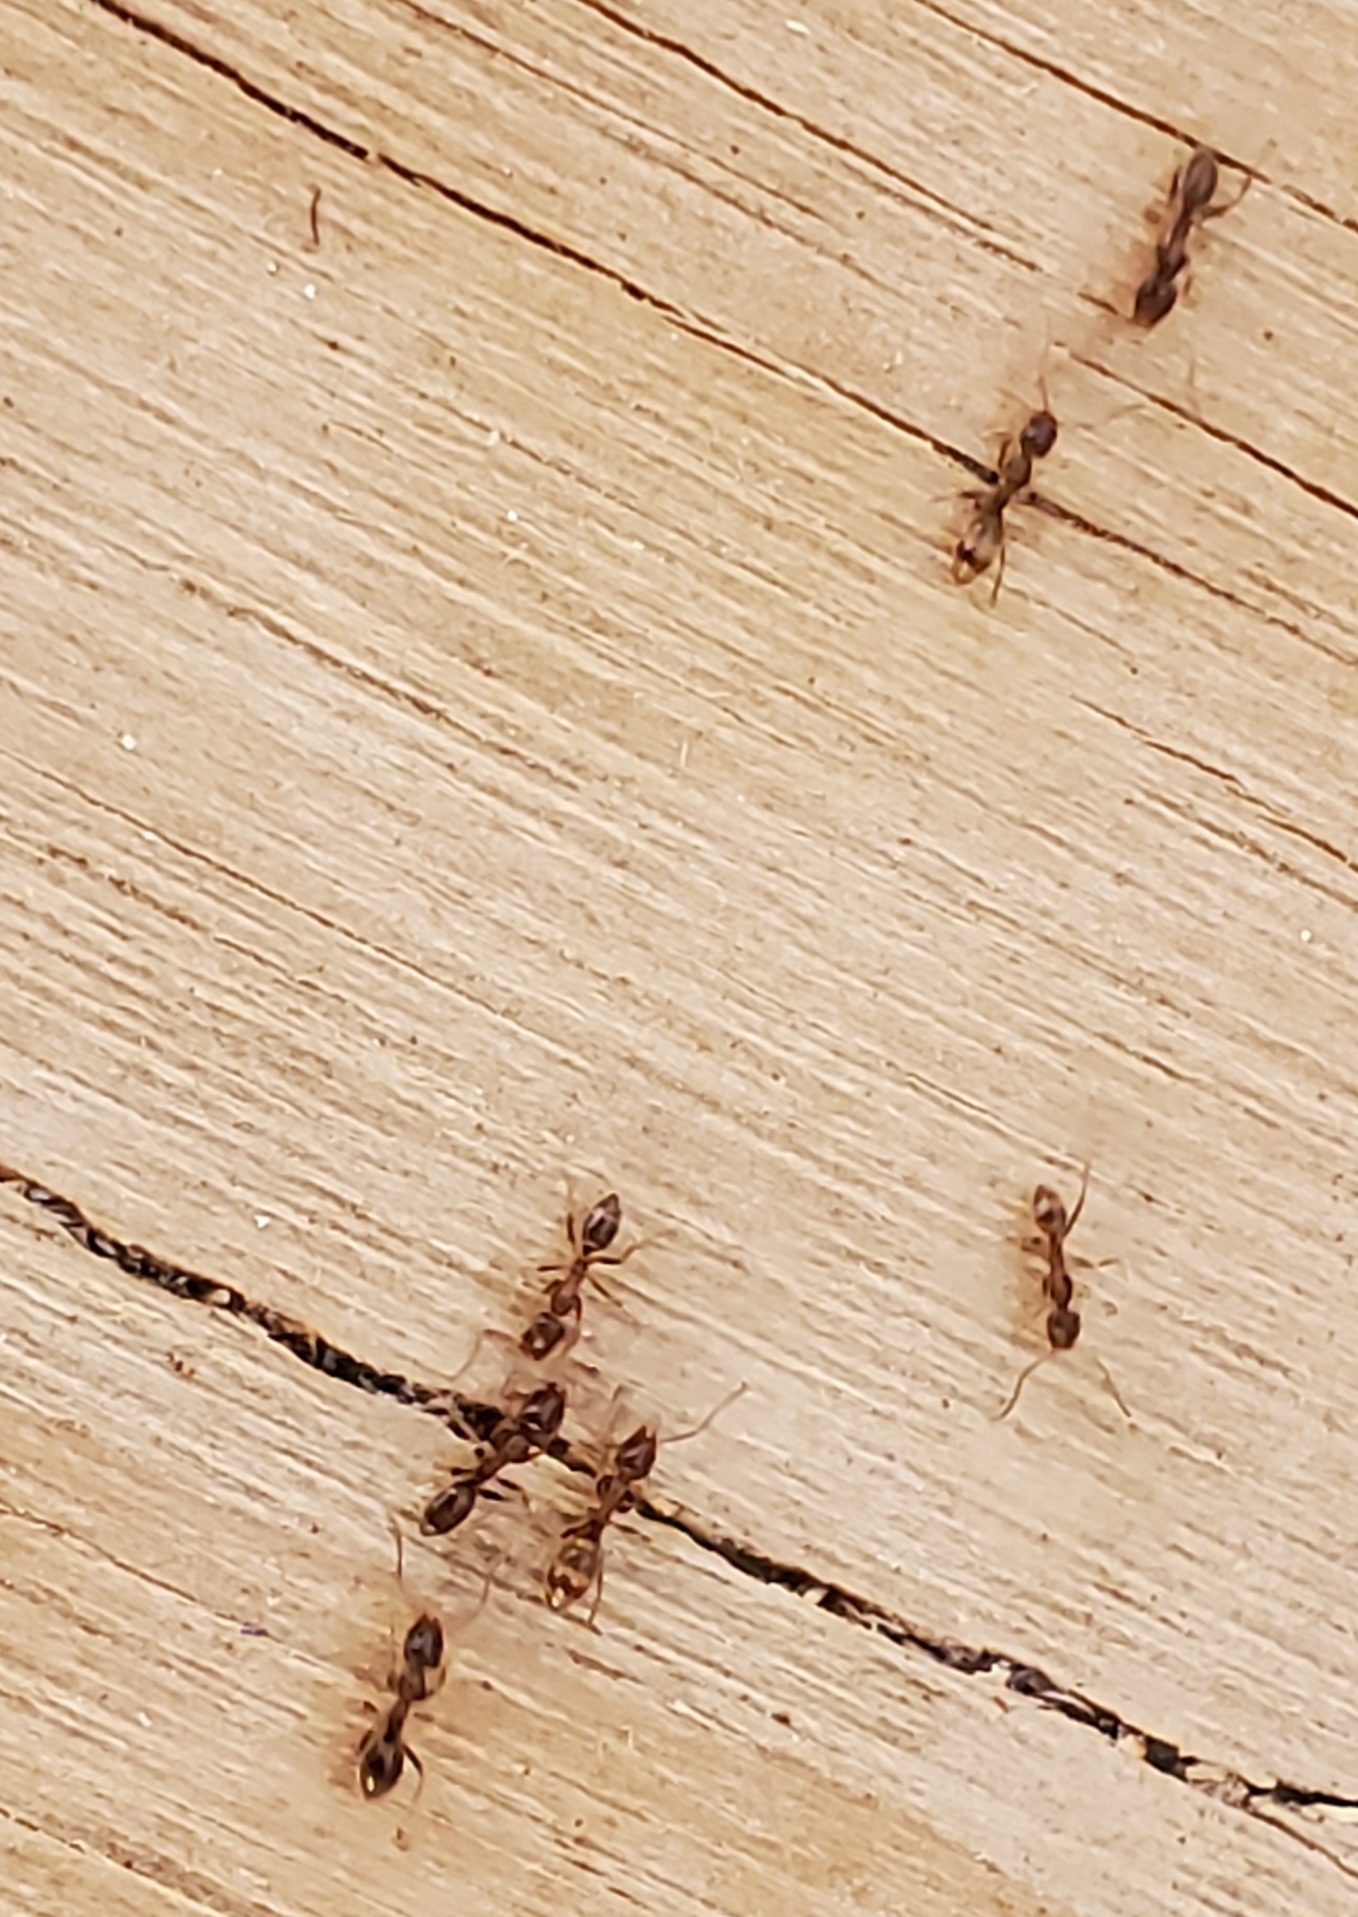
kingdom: Animalia
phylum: Arthropoda
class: Insecta
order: Hymenoptera
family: Formicidae
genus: Linepithema
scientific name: Linepithema humile
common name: Argentine ant
